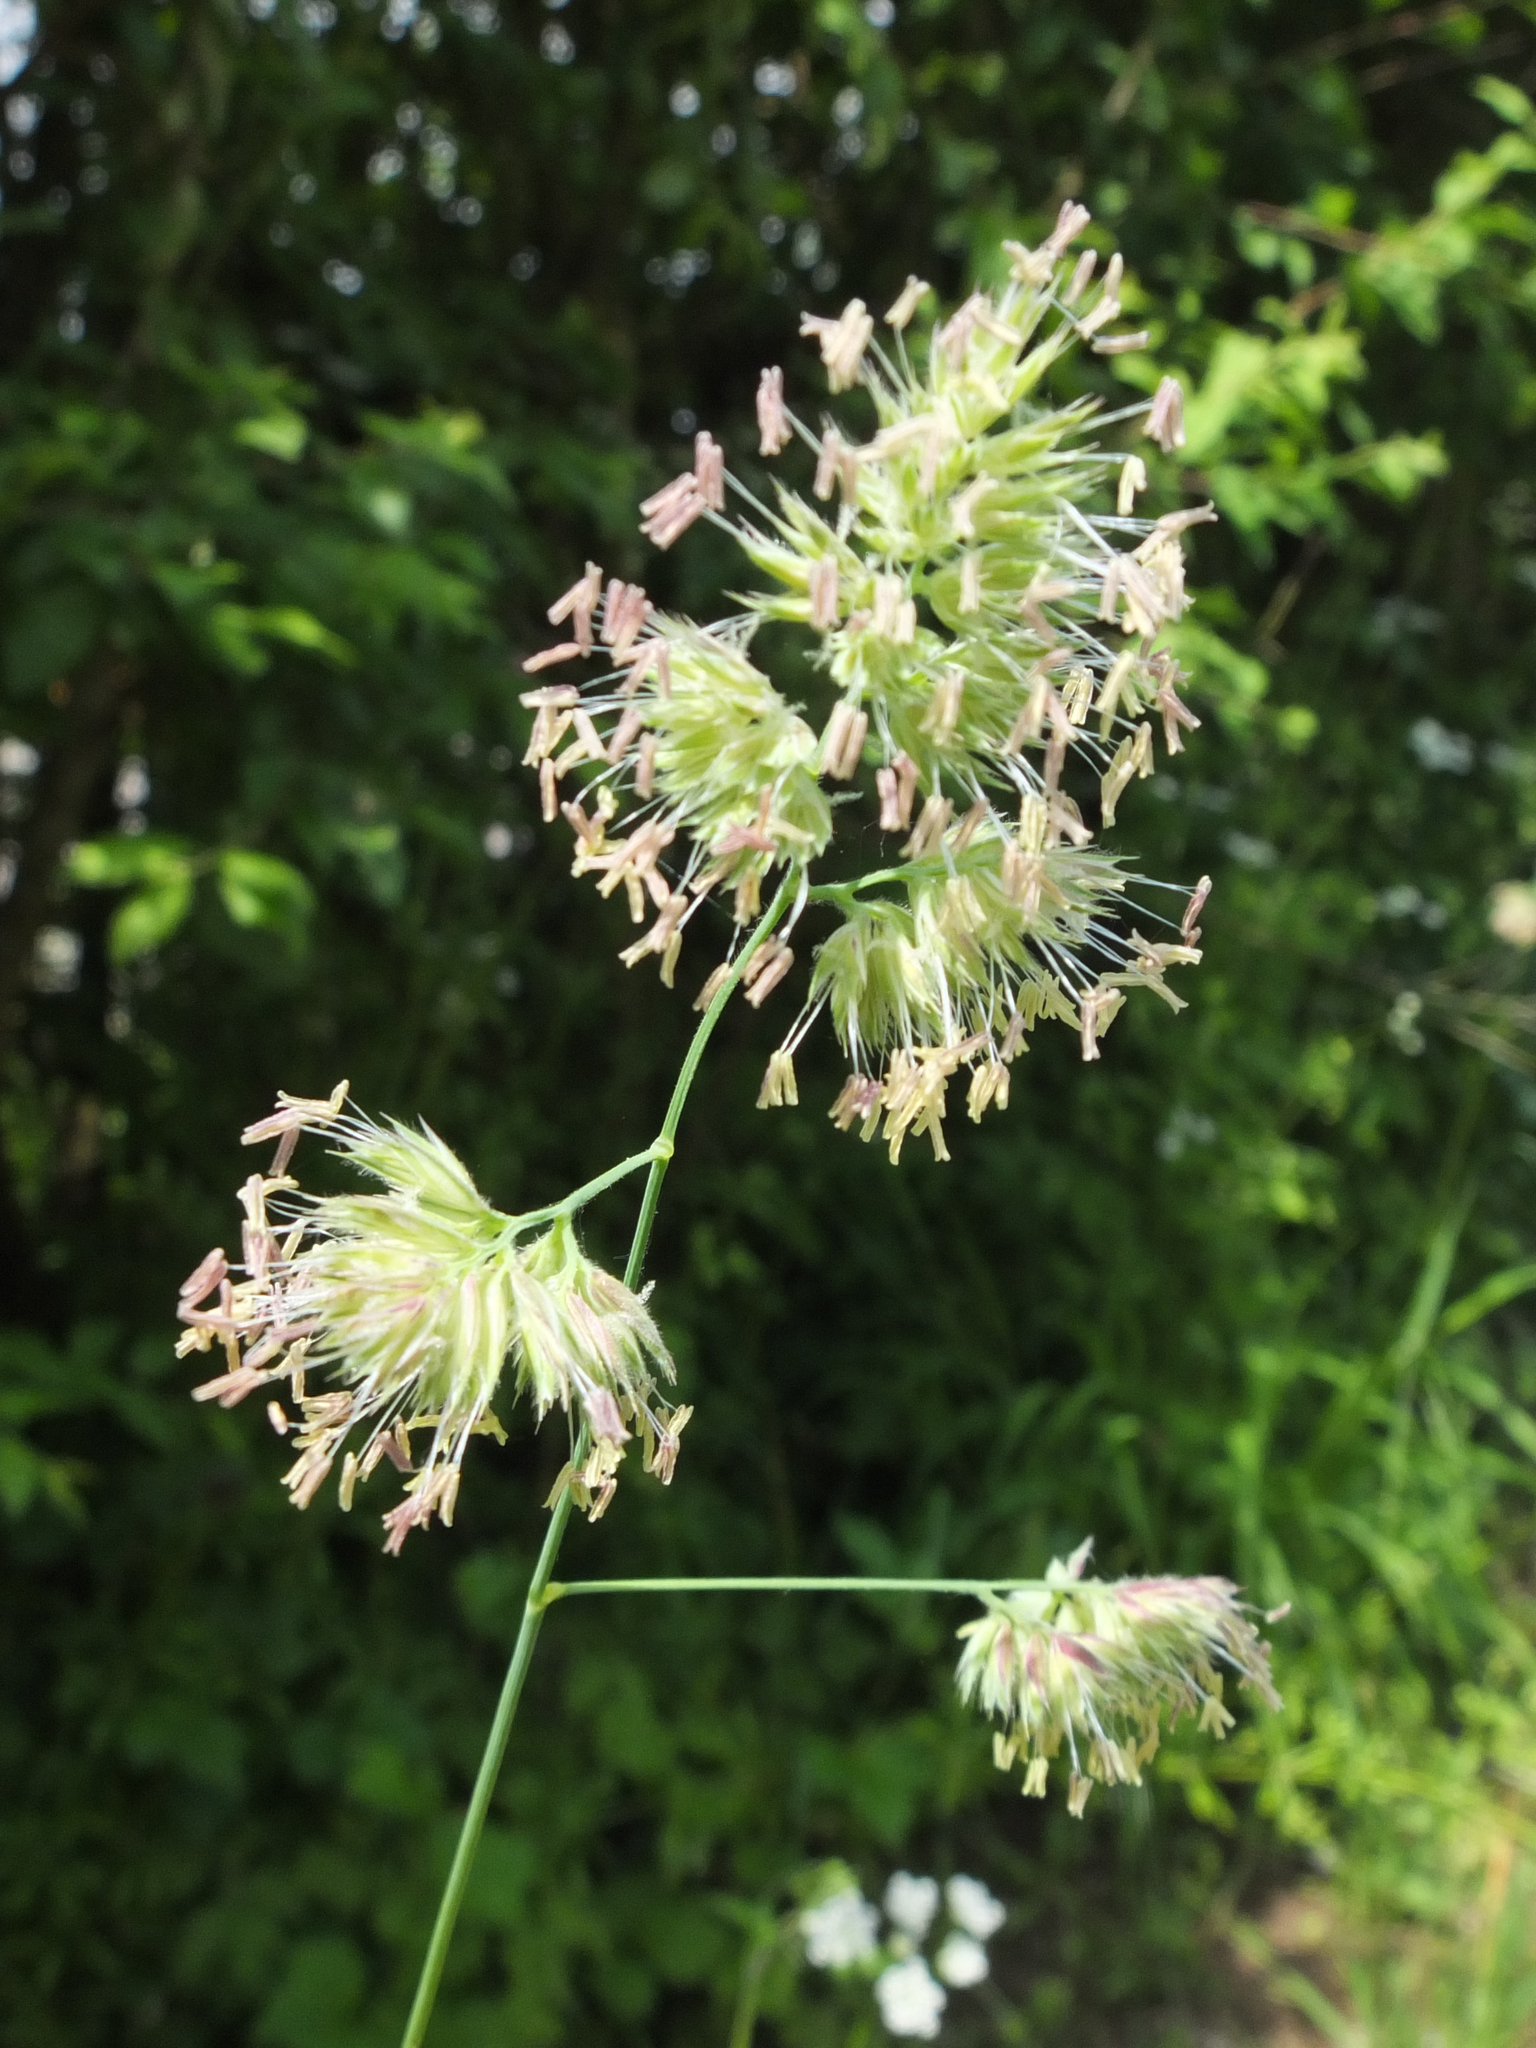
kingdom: Plantae
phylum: Tracheophyta
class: Liliopsida
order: Poales
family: Poaceae
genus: Dactylis
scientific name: Dactylis glomerata
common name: Orchardgrass
